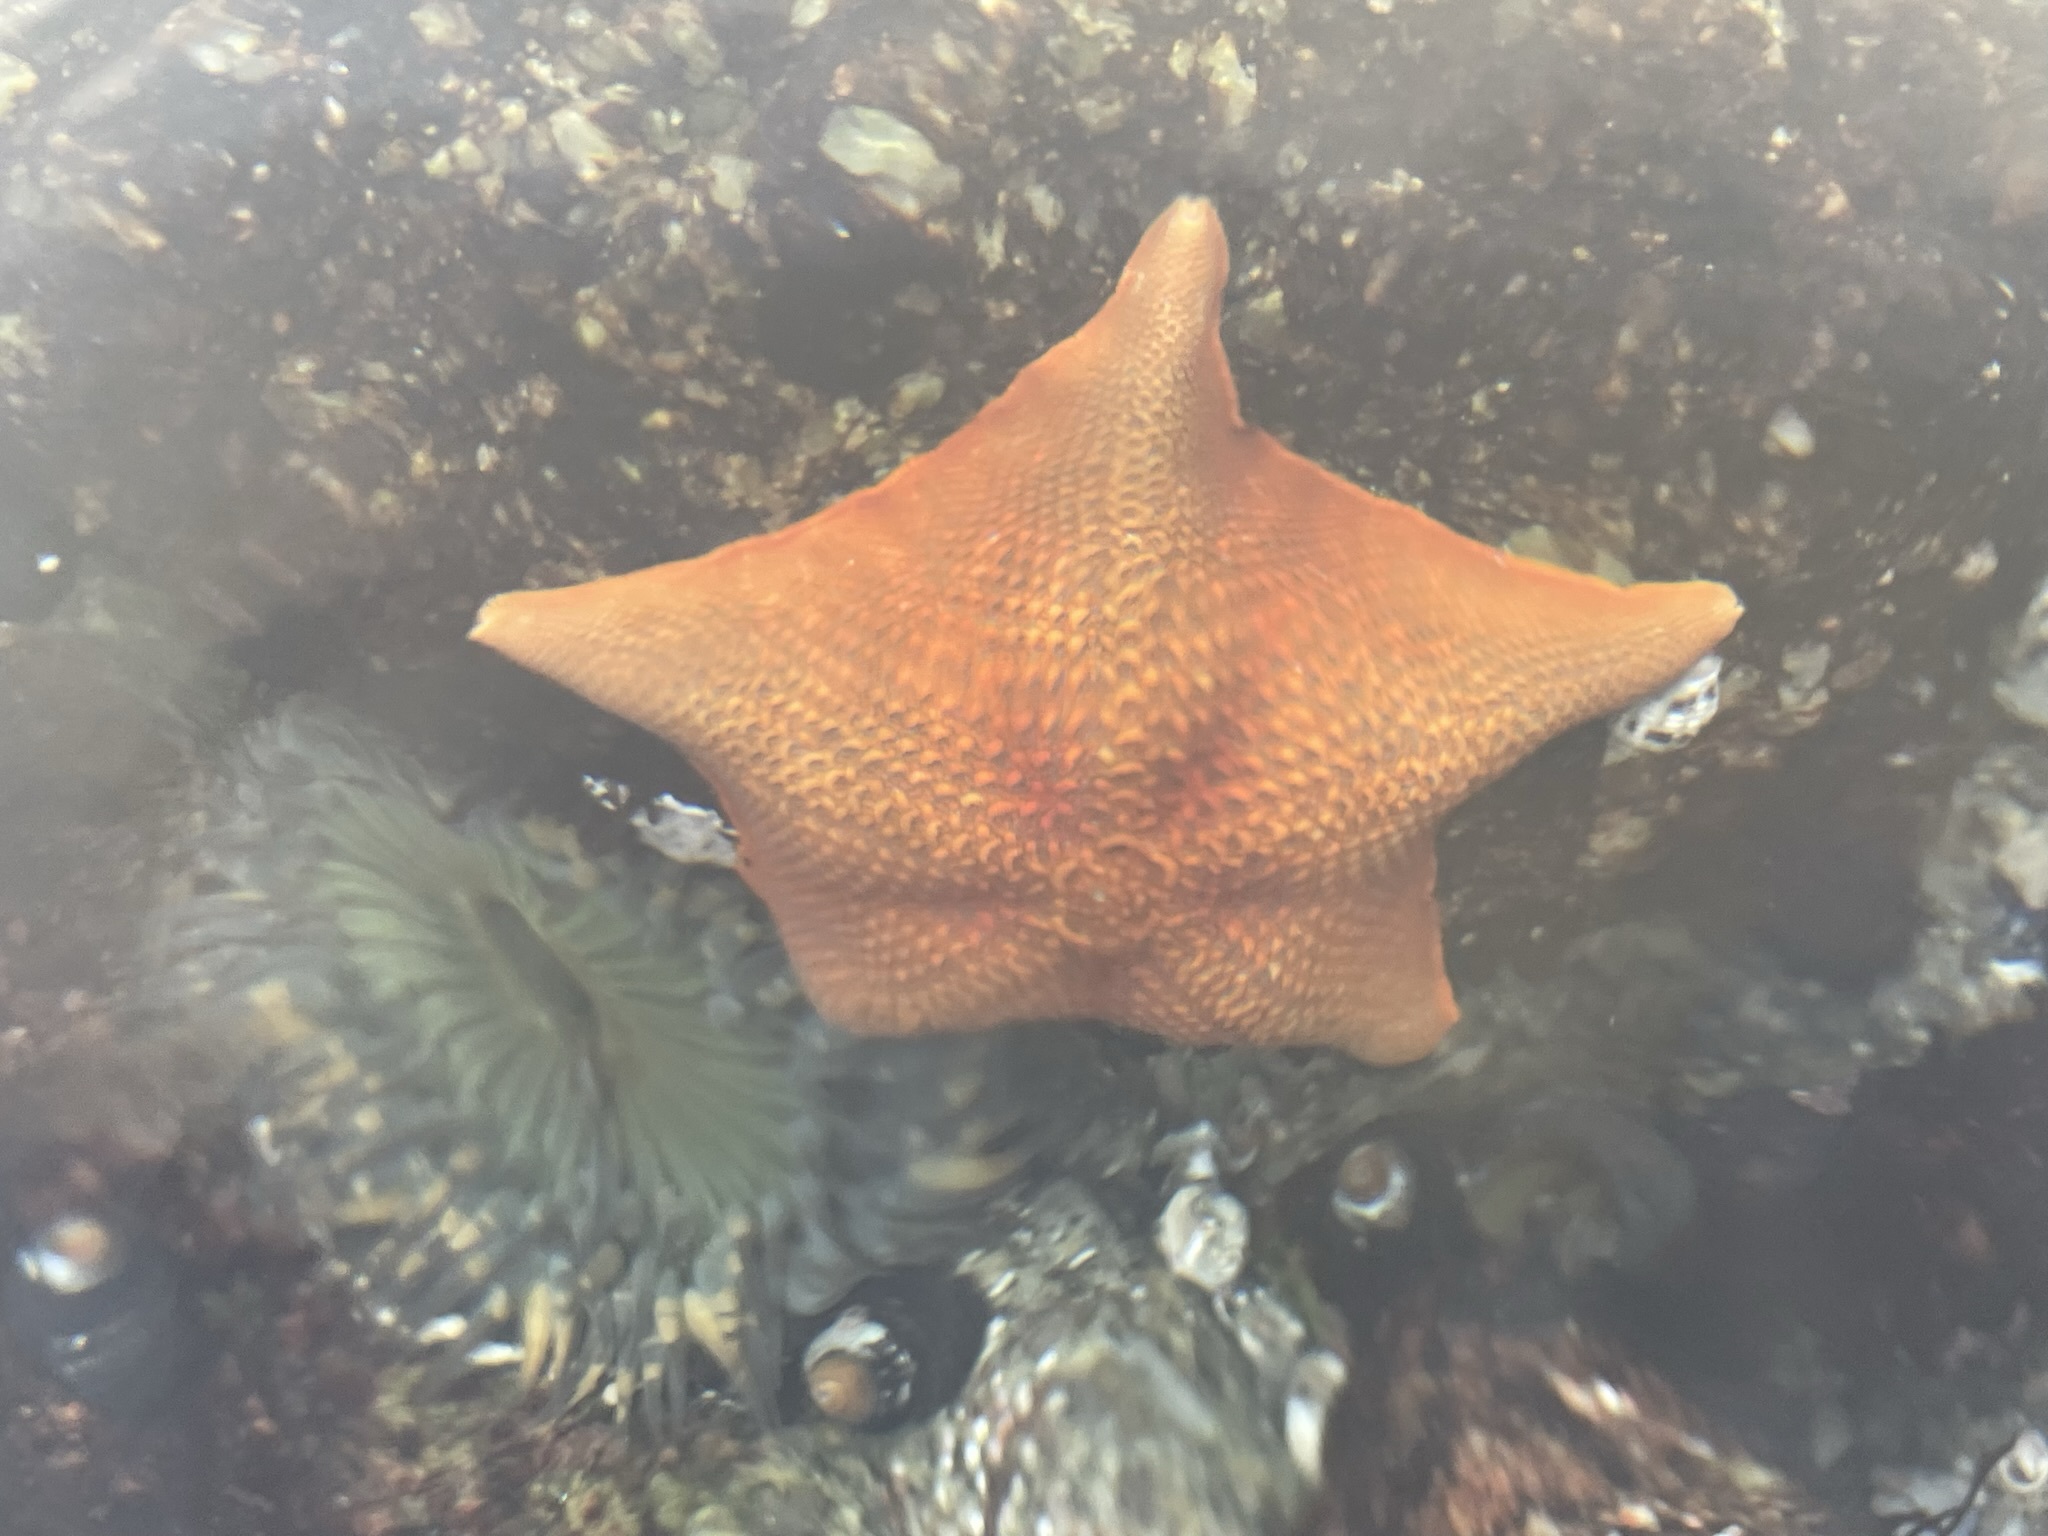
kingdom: Animalia
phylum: Echinodermata
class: Asteroidea
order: Valvatida
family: Asterinidae
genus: Patiria
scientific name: Patiria miniata
